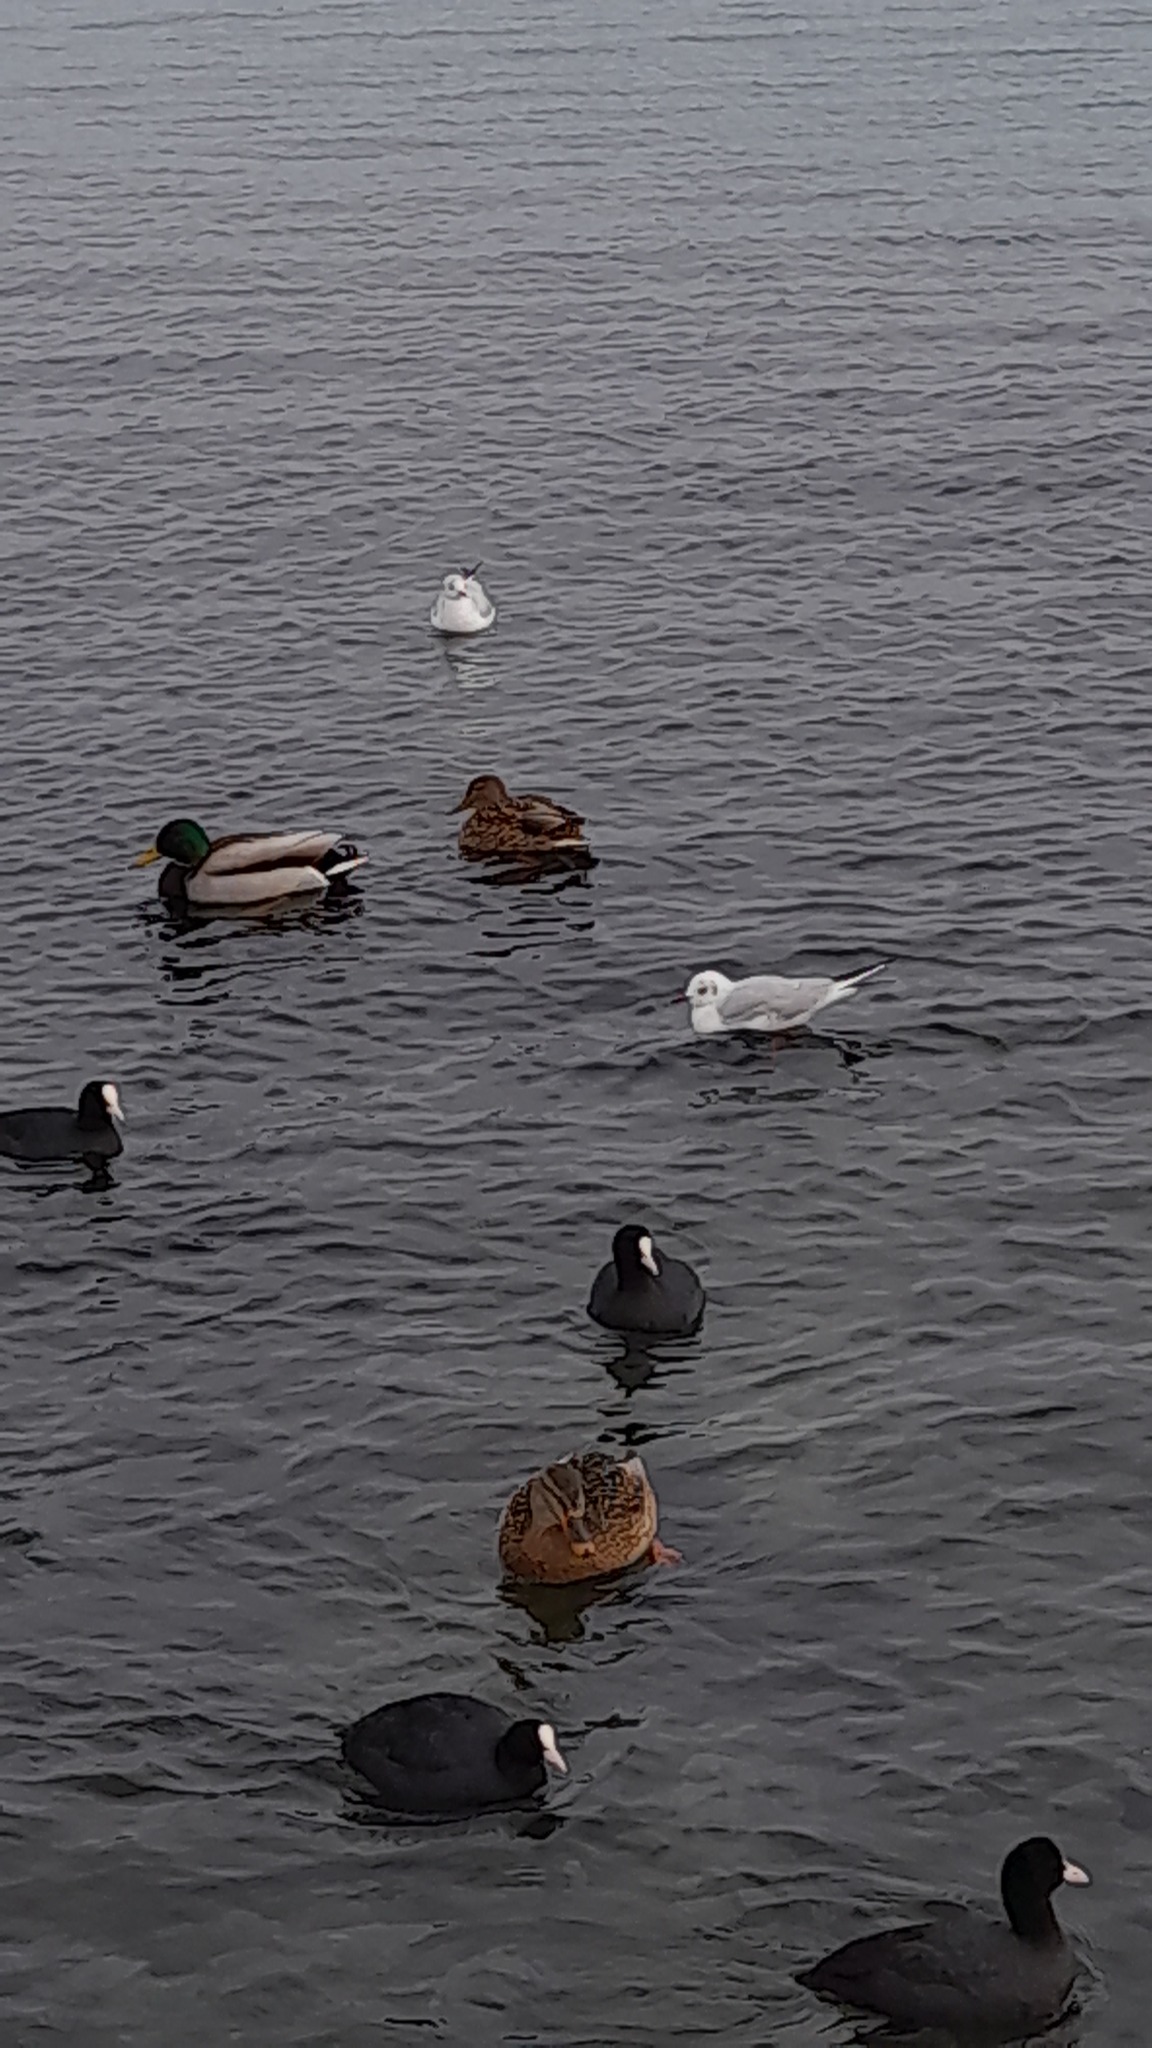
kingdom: Animalia
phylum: Chordata
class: Aves
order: Anseriformes
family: Anatidae
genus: Anas
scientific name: Anas platyrhynchos
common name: Mallard
